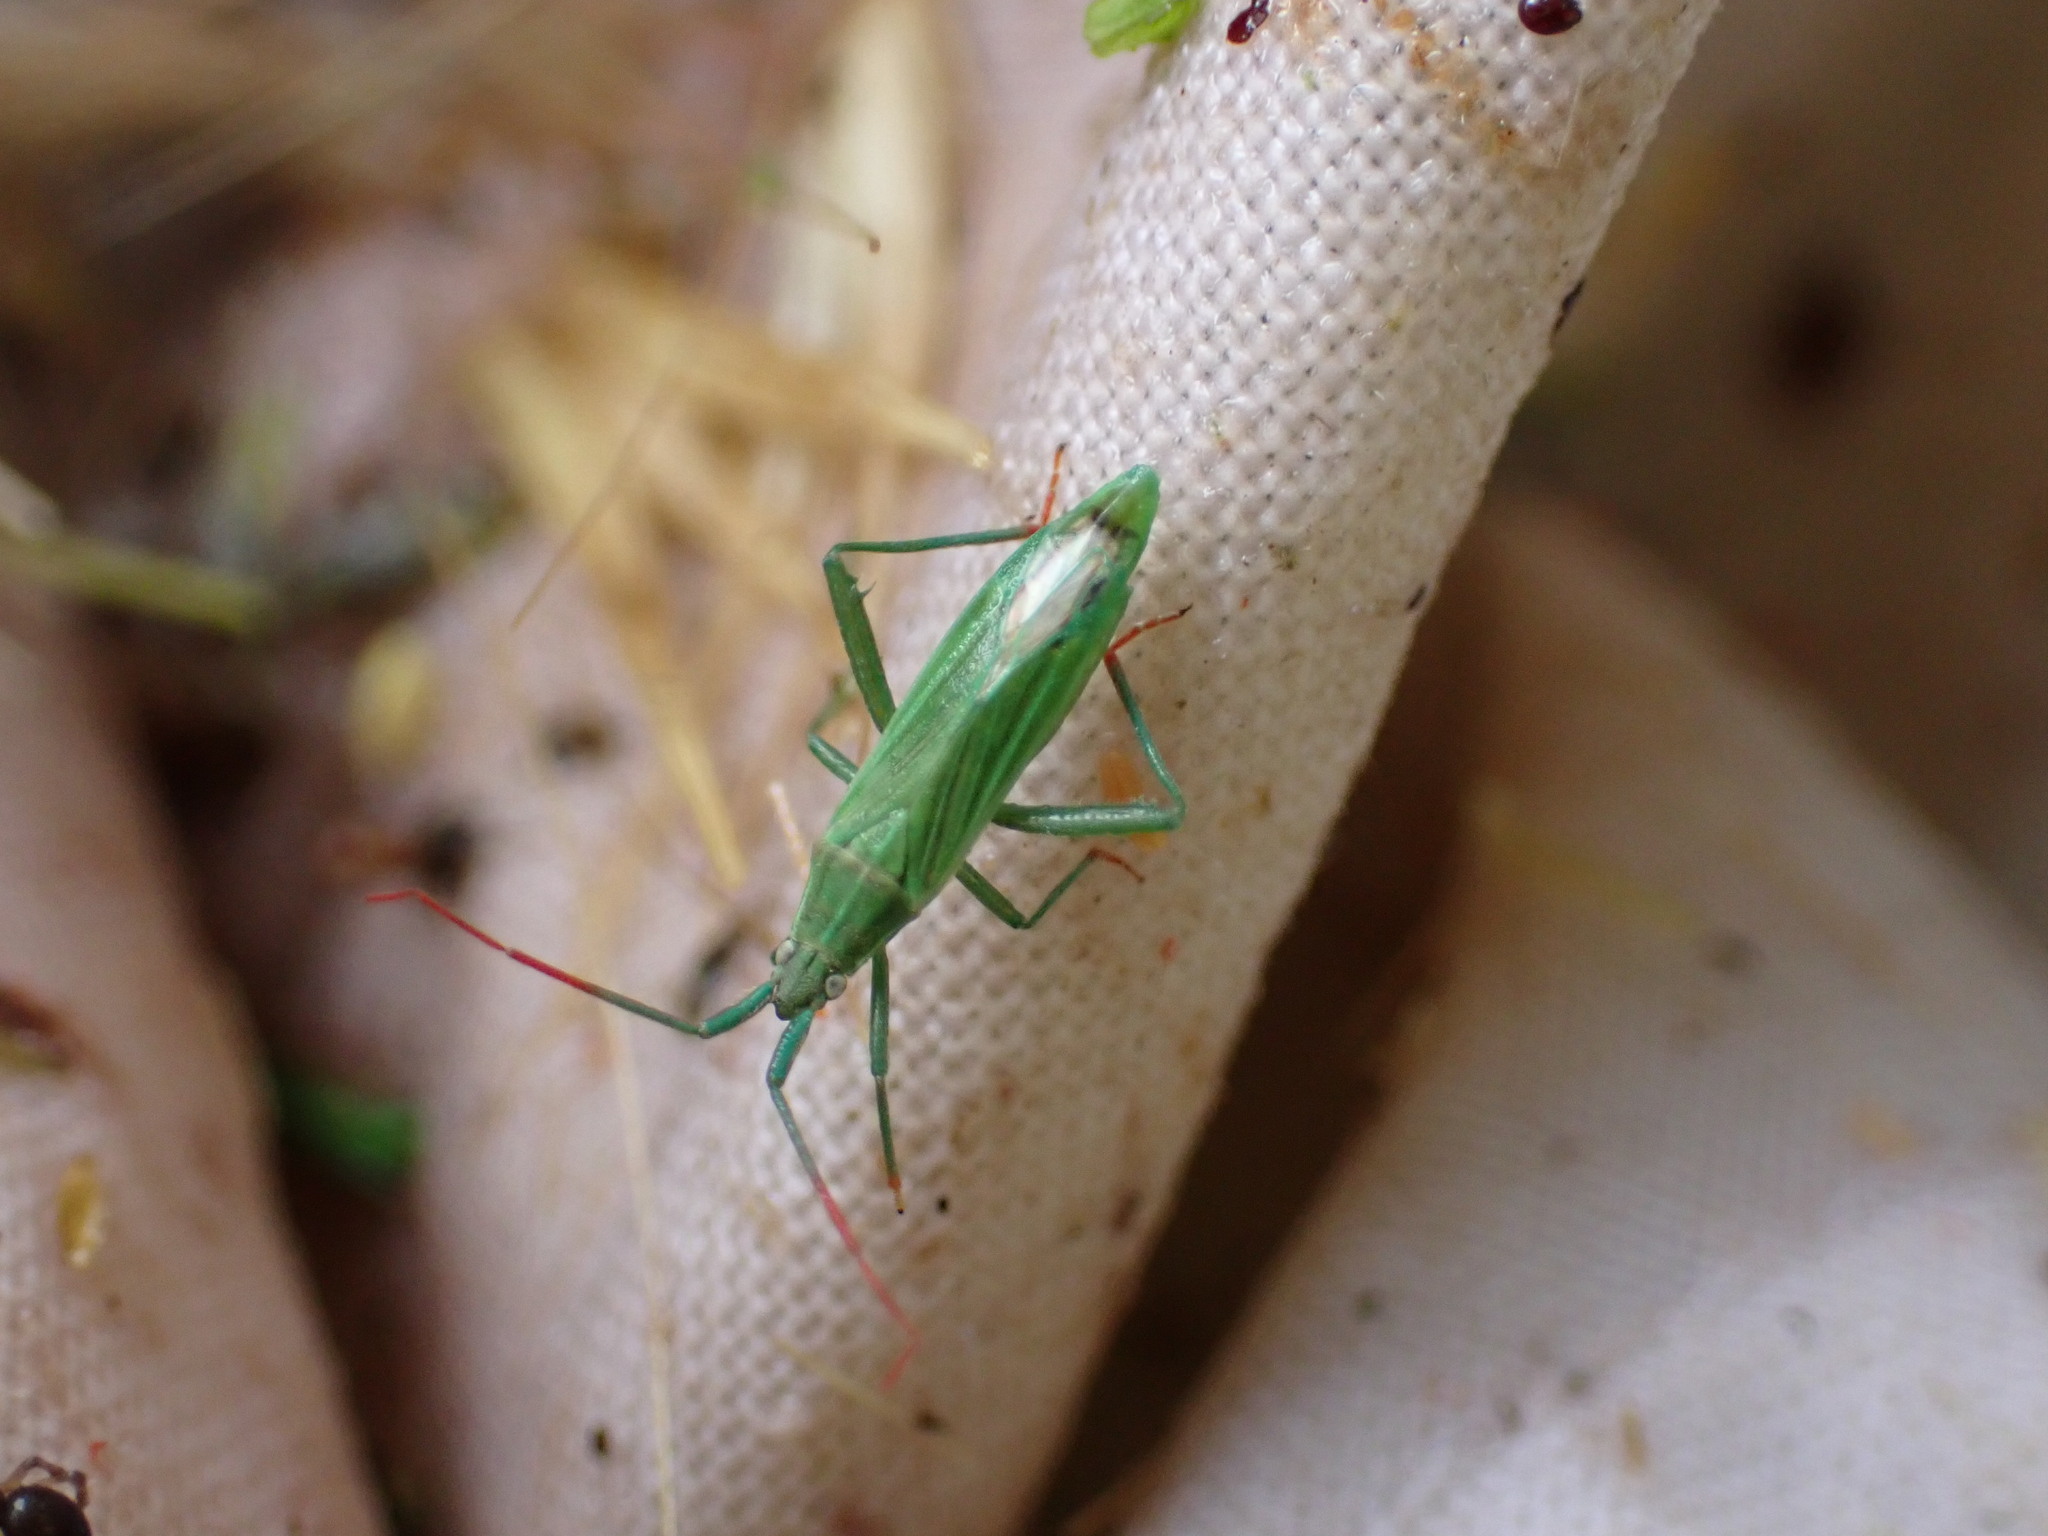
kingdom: Animalia
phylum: Arthropoda
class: Insecta
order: Hemiptera
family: Miridae
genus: Stenodema
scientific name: Stenodema calcarata
